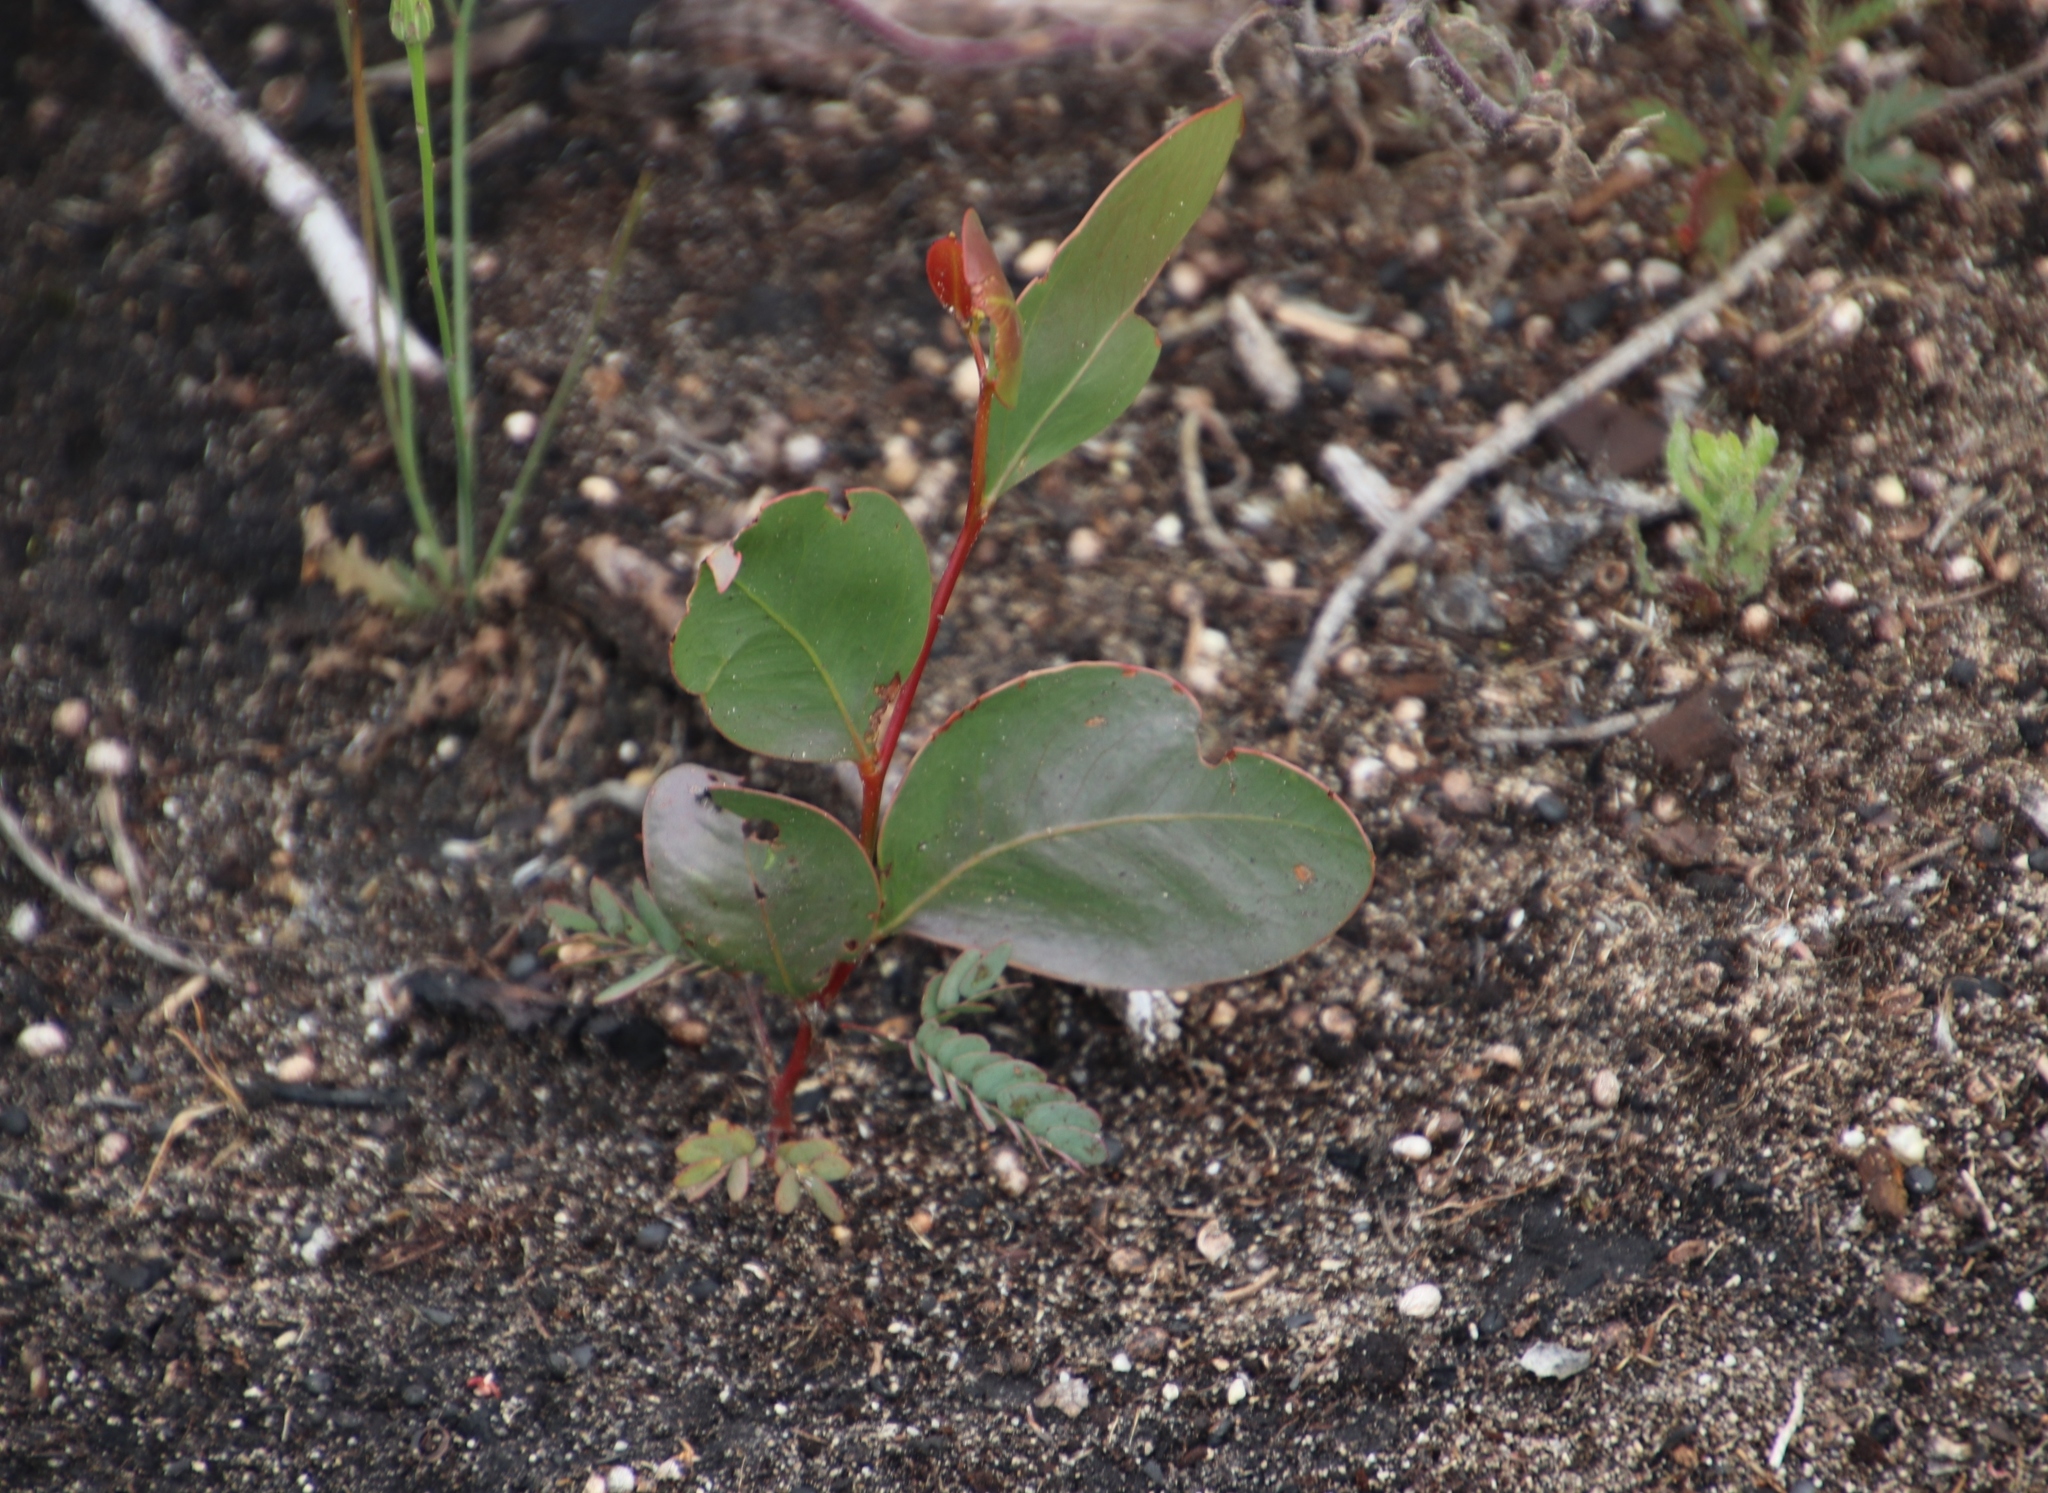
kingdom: Plantae
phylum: Tracheophyta
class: Magnoliopsida
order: Fabales
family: Fabaceae
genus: Acacia
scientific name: Acacia pycnantha
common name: Golden wattle
